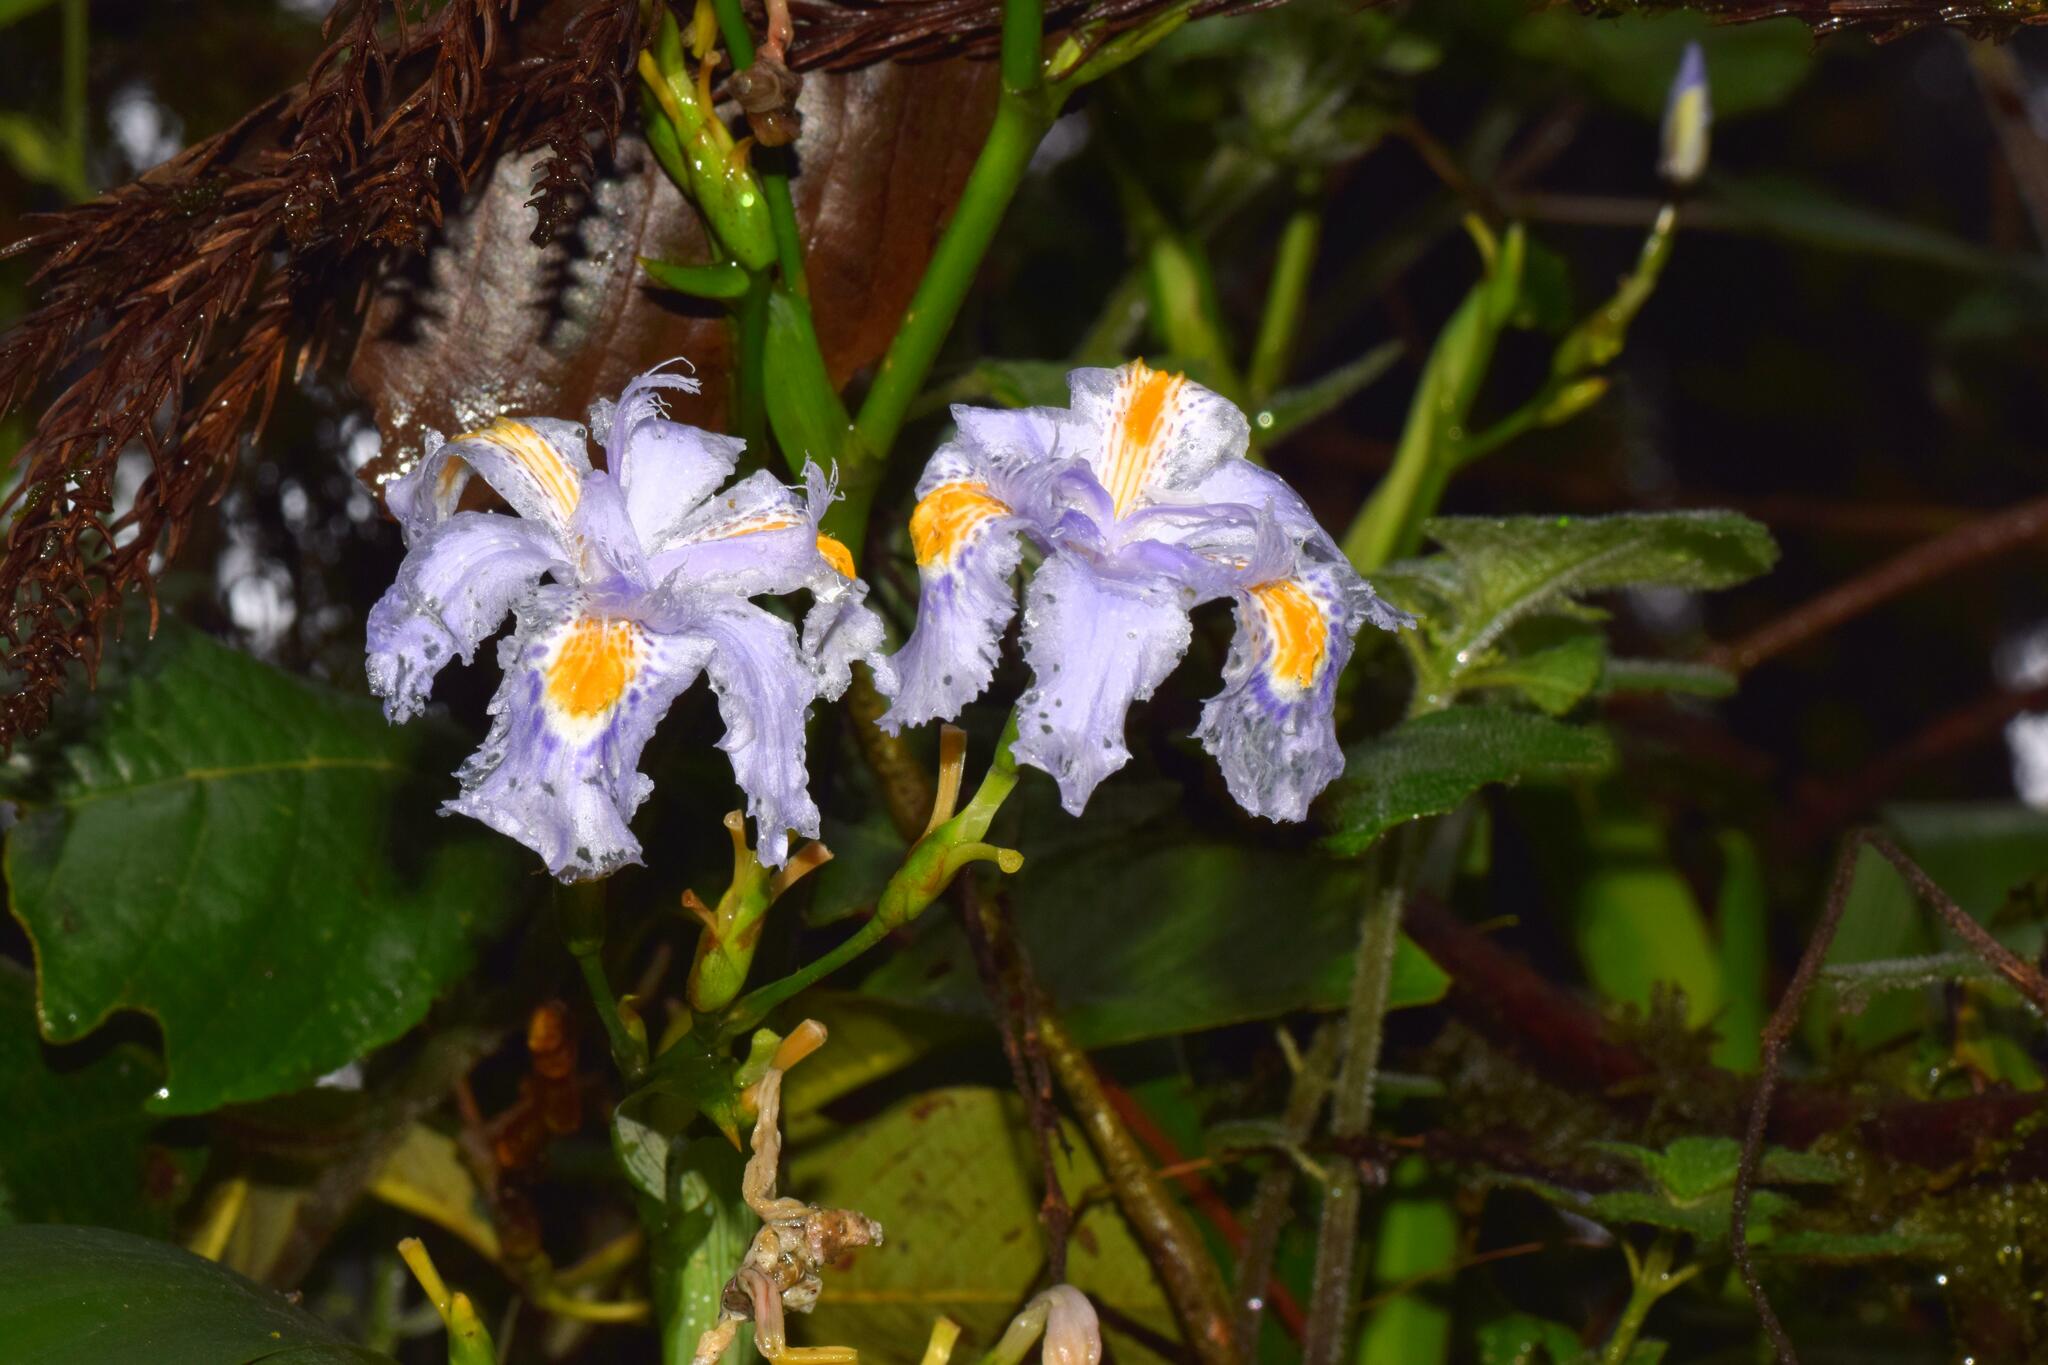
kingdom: Plantae
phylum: Tracheophyta
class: Liliopsida
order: Asparagales
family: Iridaceae
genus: Iris
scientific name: Iris japonica
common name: Butterfly-flower
